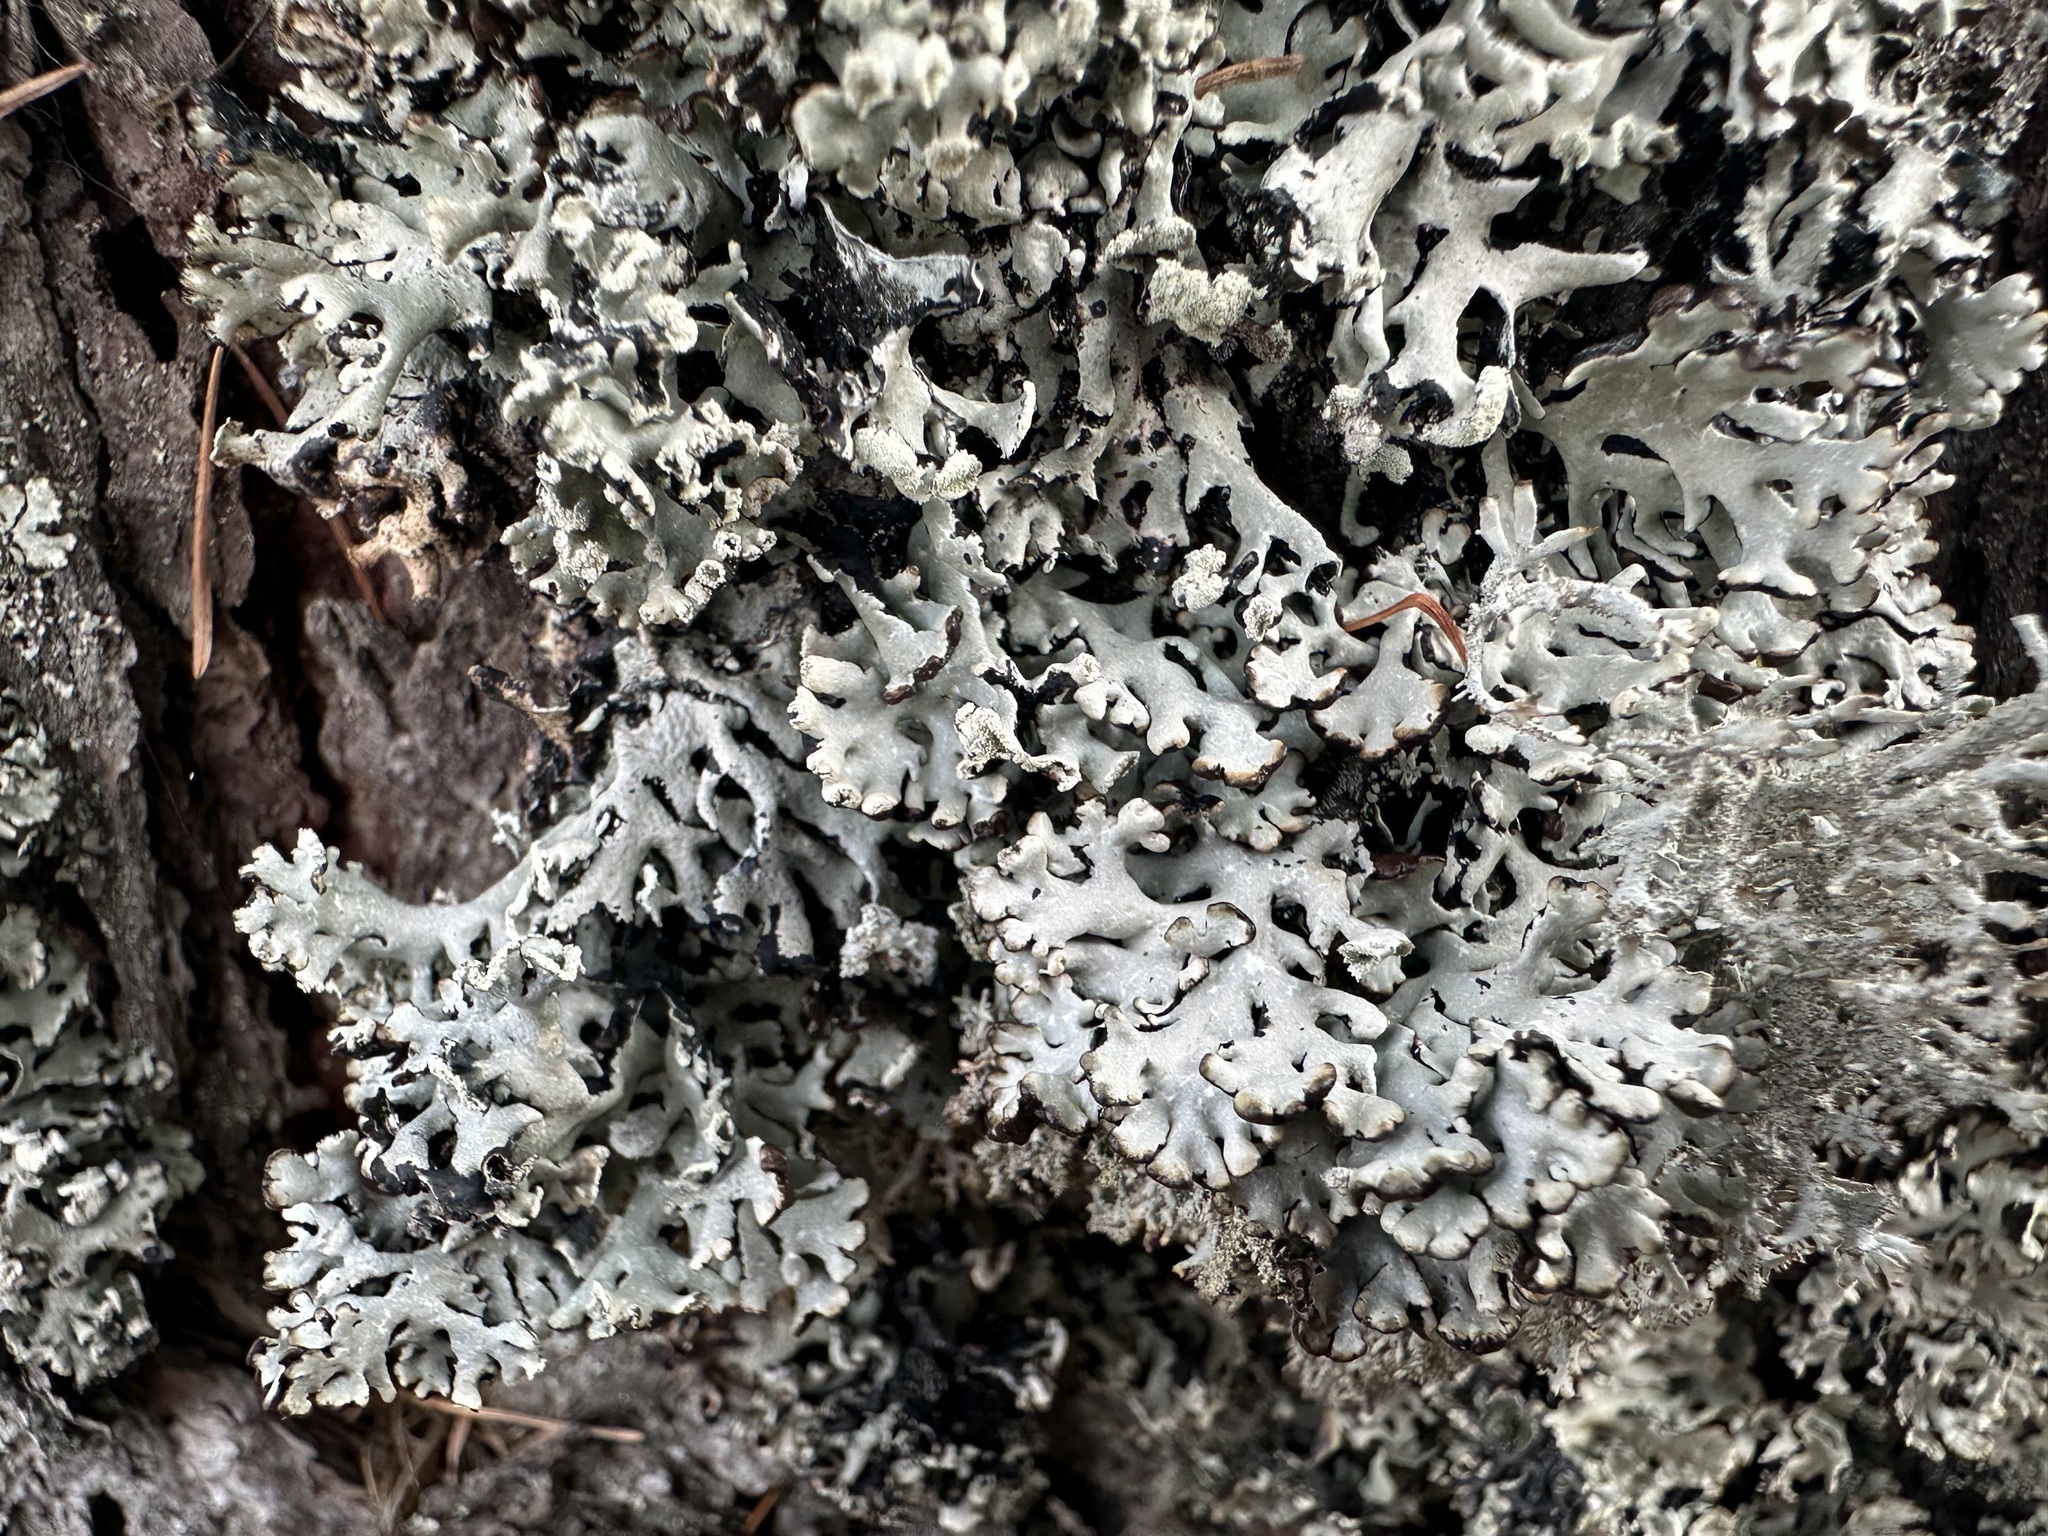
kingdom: Fungi
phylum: Ascomycota
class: Lecanoromycetes
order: Lecanorales
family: Parmeliaceae
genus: Hypogymnia
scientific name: Hypogymnia physodes
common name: Dark crottle
